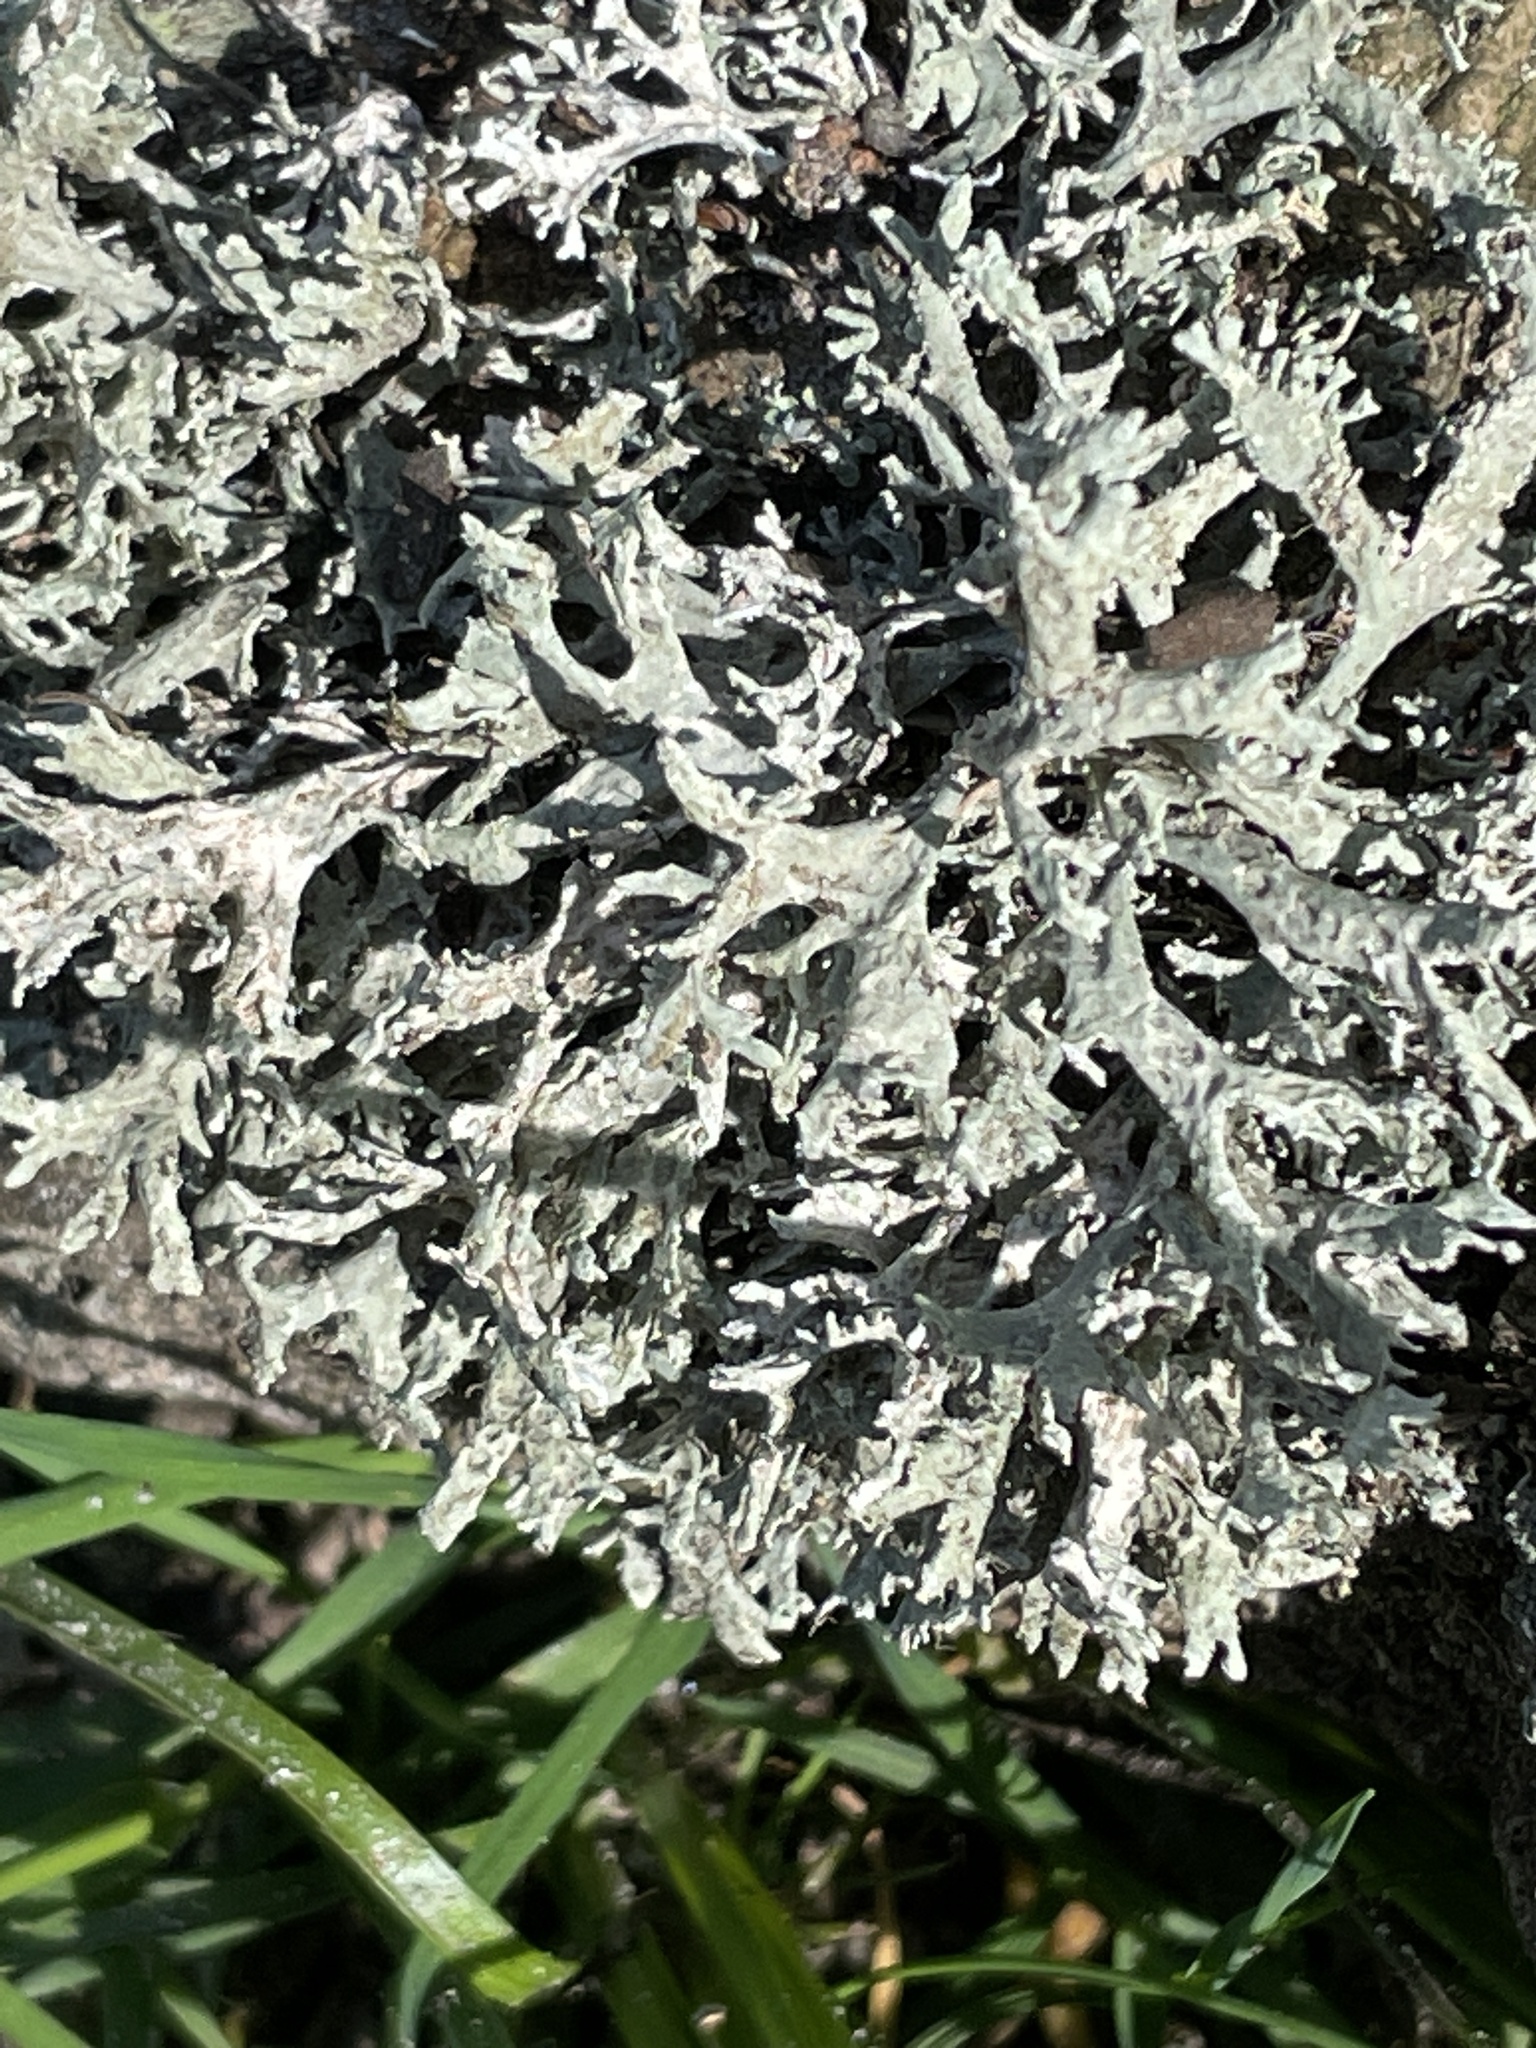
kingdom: Fungi
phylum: Ascomycota
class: Lecanoromycetes
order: Lecanorales
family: Parmeliaceae
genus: Evernia
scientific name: Evernia prunastri
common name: Oak moss
